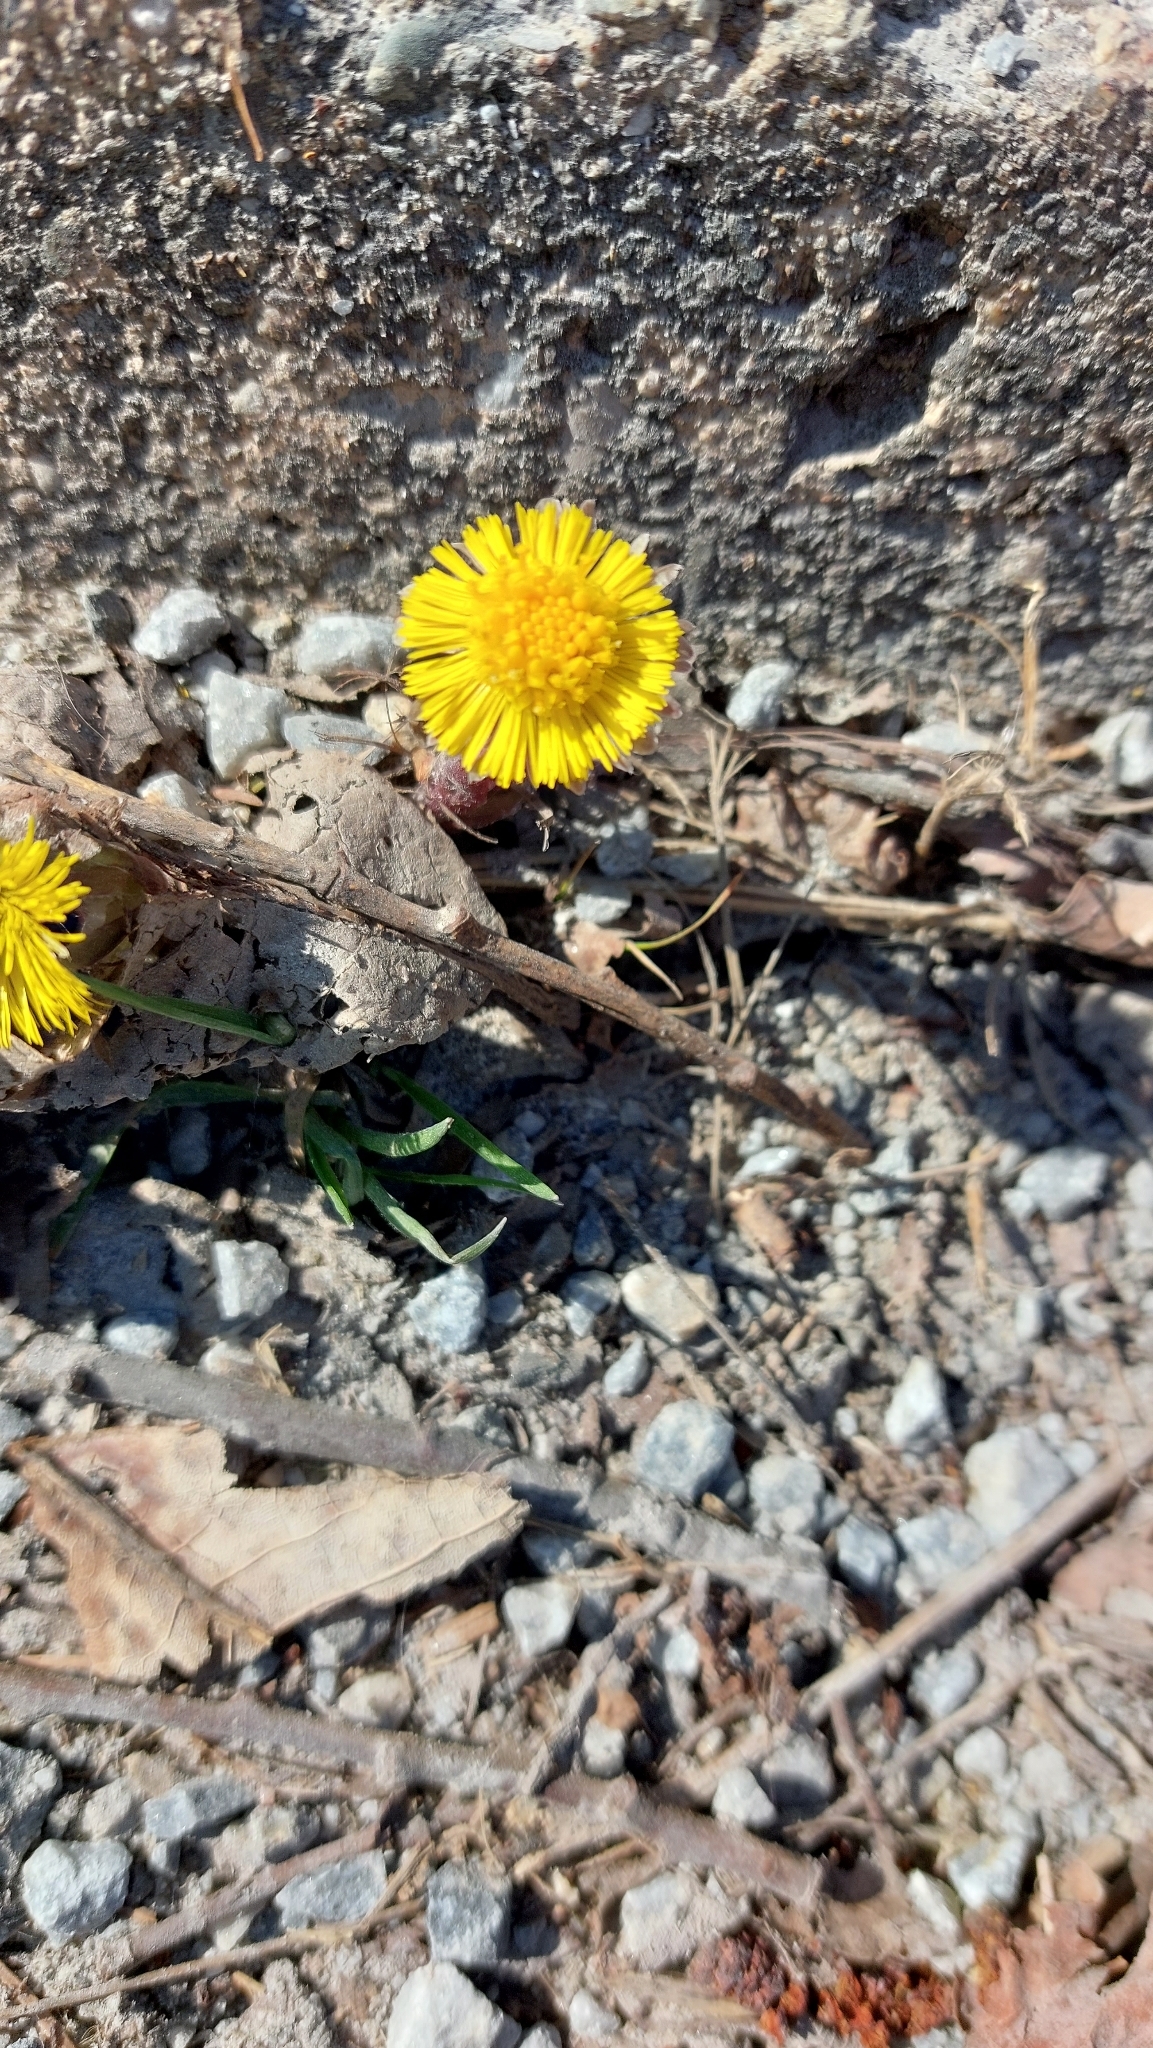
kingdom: Plantae
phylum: Tracheophyta
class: Magnoliopsida
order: Asterales
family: Asteraceae
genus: Tussilago
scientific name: Tussilago farfara
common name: Coltsfoot
